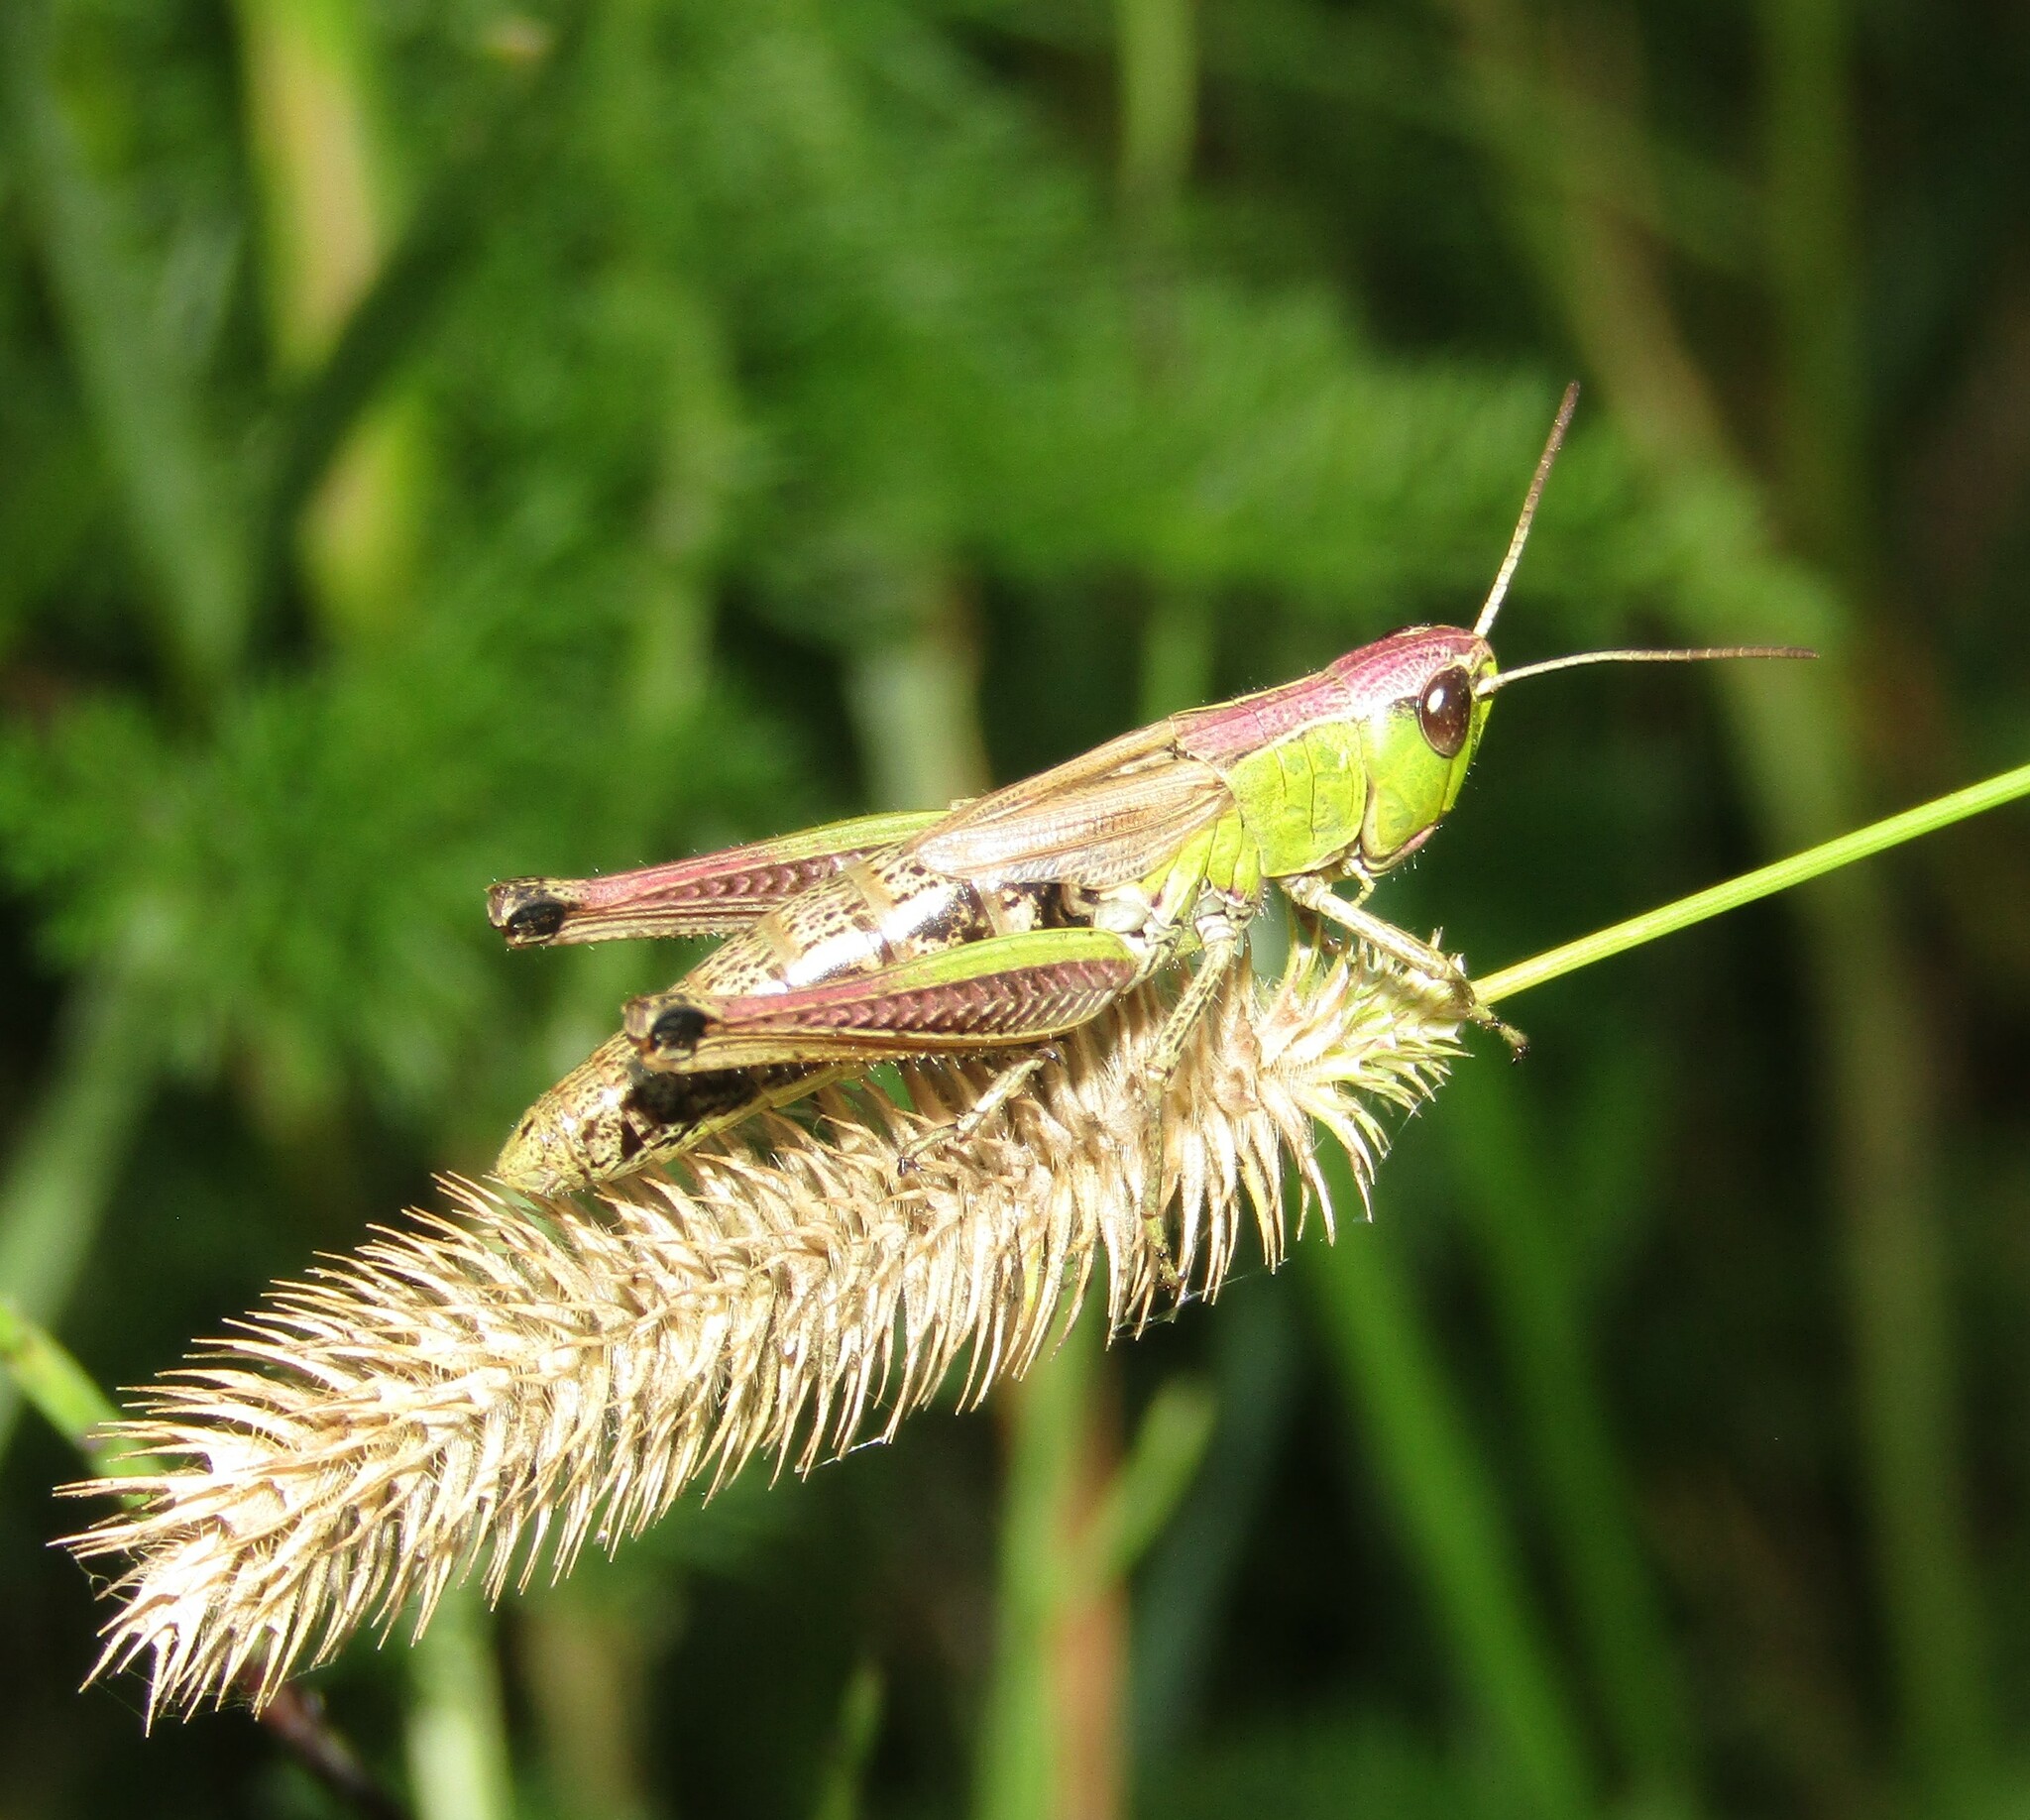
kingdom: Animalia
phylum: Arthropoda
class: Insecta
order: Orthoptera
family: Acrididae
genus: Pseudochorthippus
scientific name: Pseudochorthippus parallelus
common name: Meadow grasshopper
